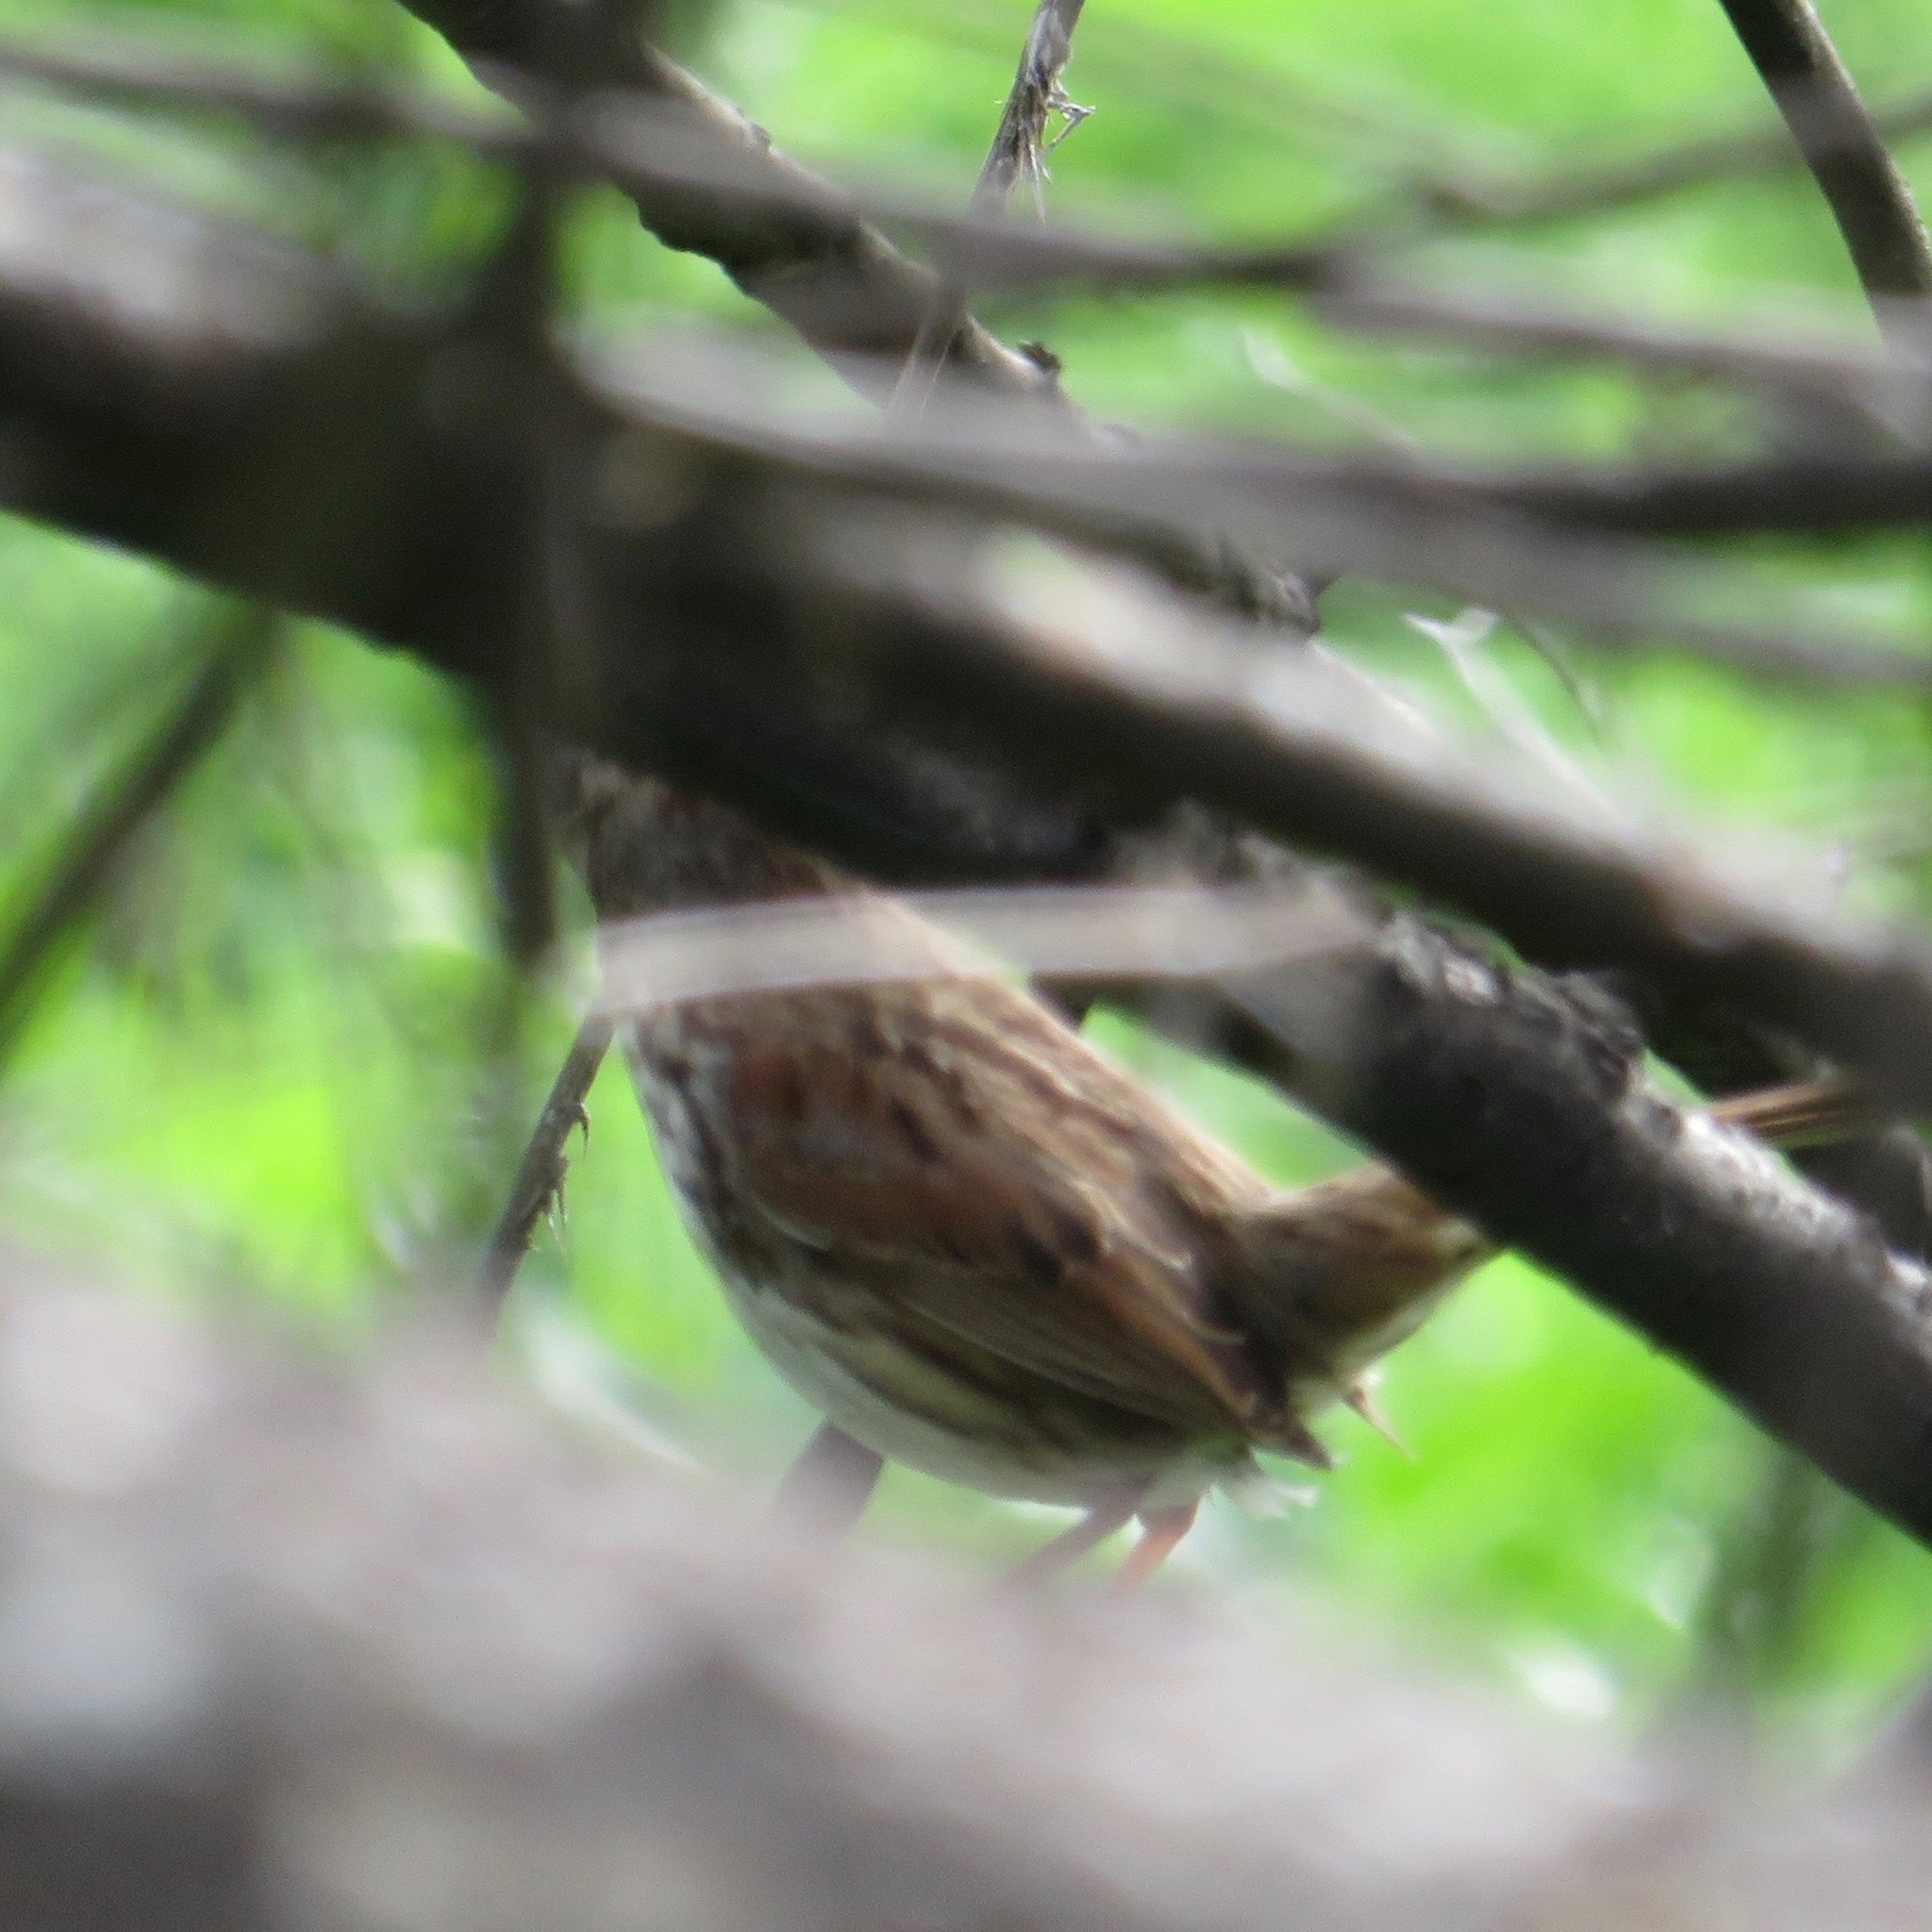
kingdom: Animalia
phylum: Chordata
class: Aves
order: Passeriformes
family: Passerellidae
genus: Melospiza
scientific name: Melospiza melodia
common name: Song sparrow
